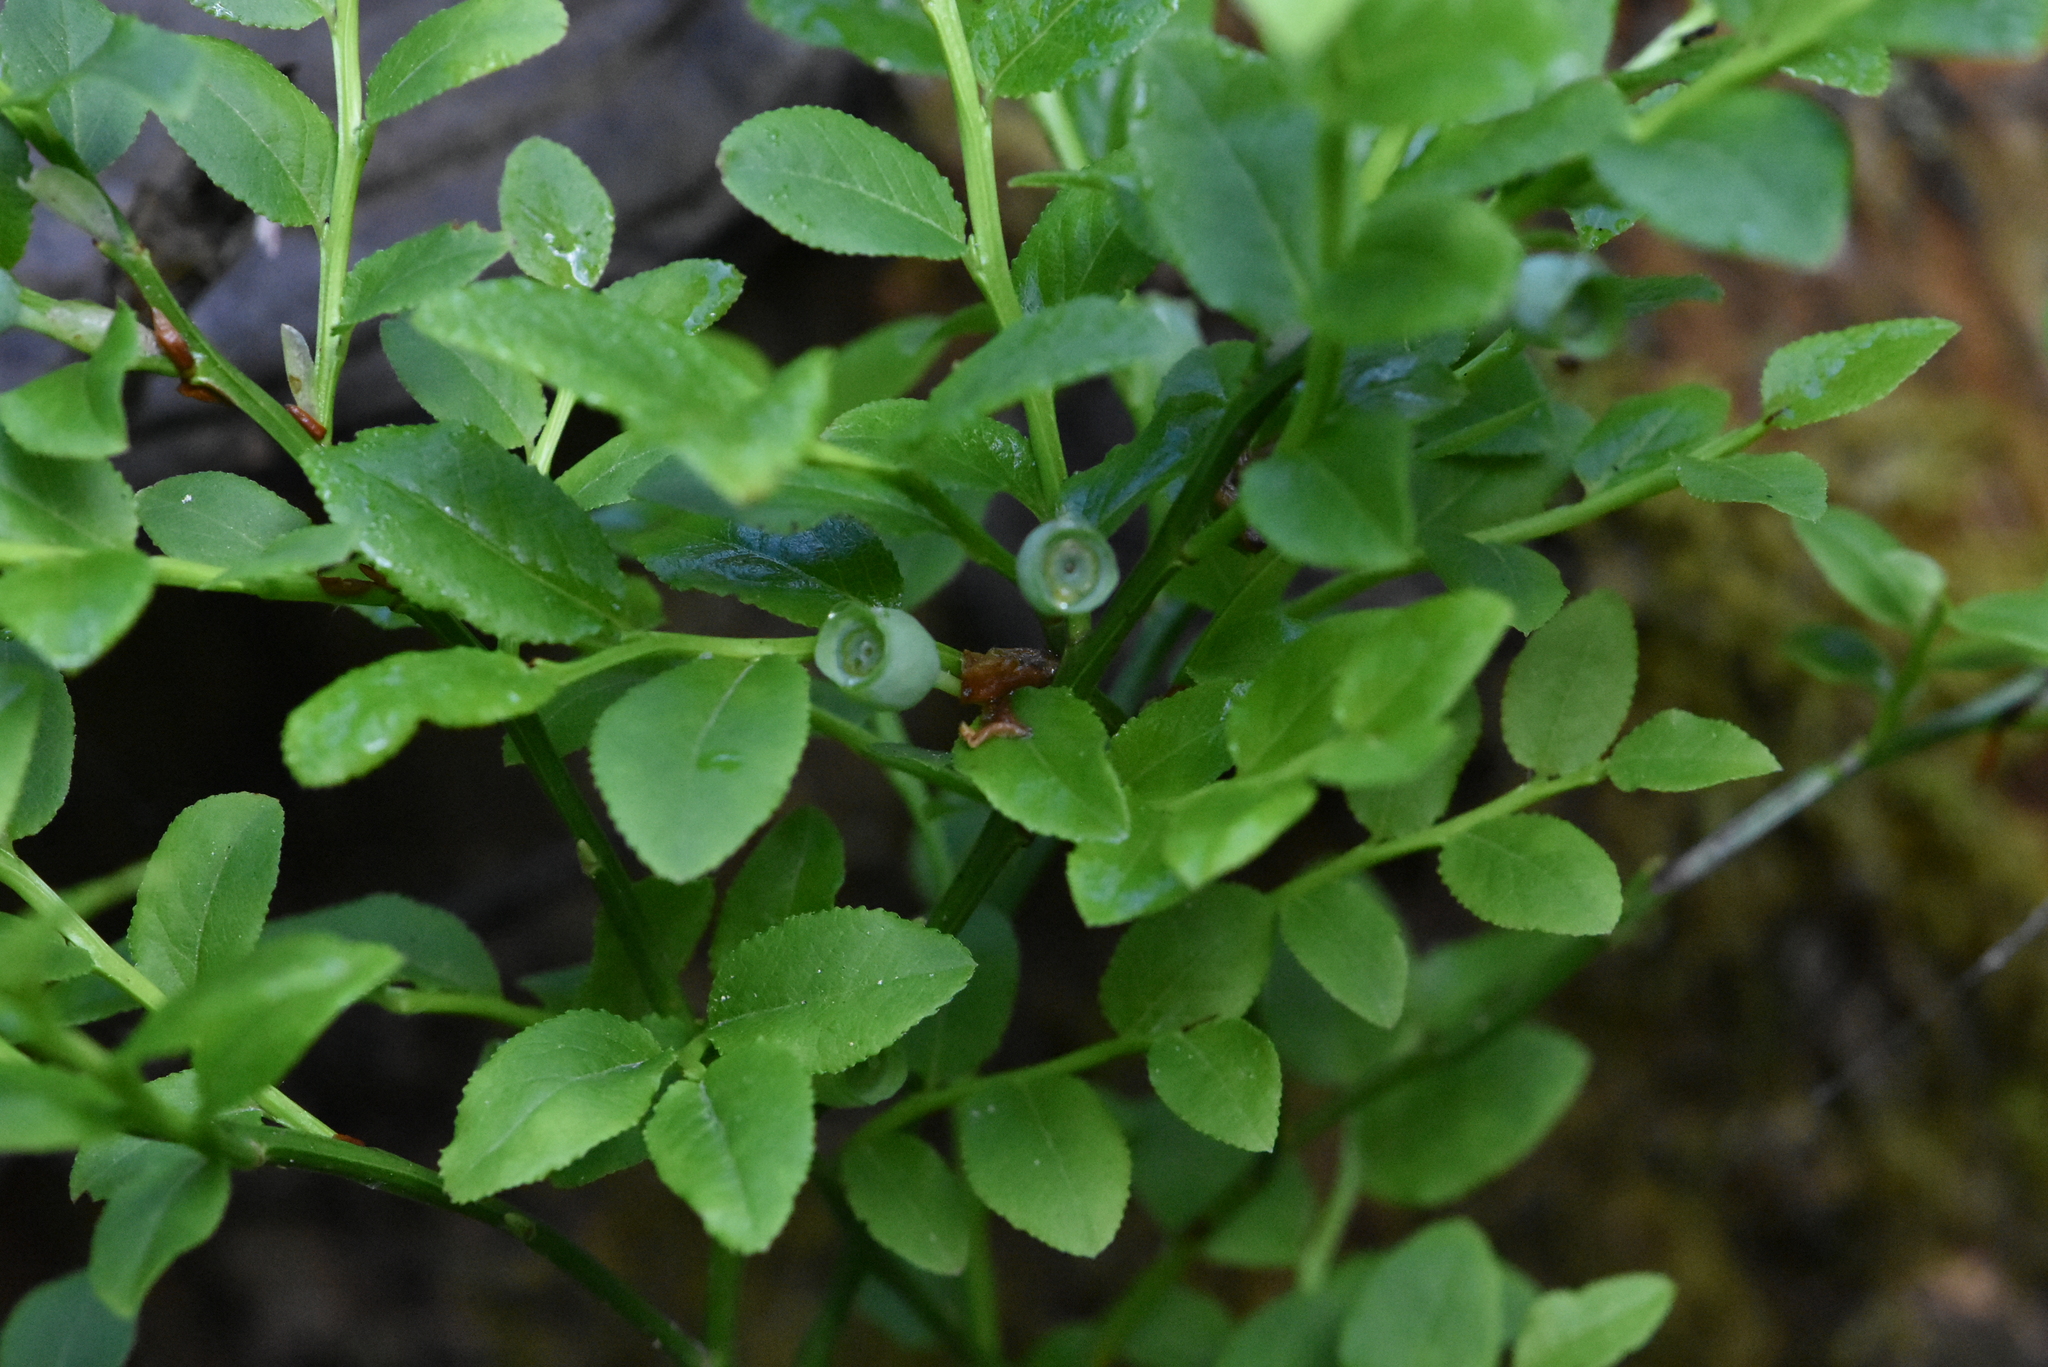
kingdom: Plantae
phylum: Tracheophyta
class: Magnoliopsida
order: Ericales
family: Ericaceae
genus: Vaccinium
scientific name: Vaccinium myrtillus
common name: Bilberry
